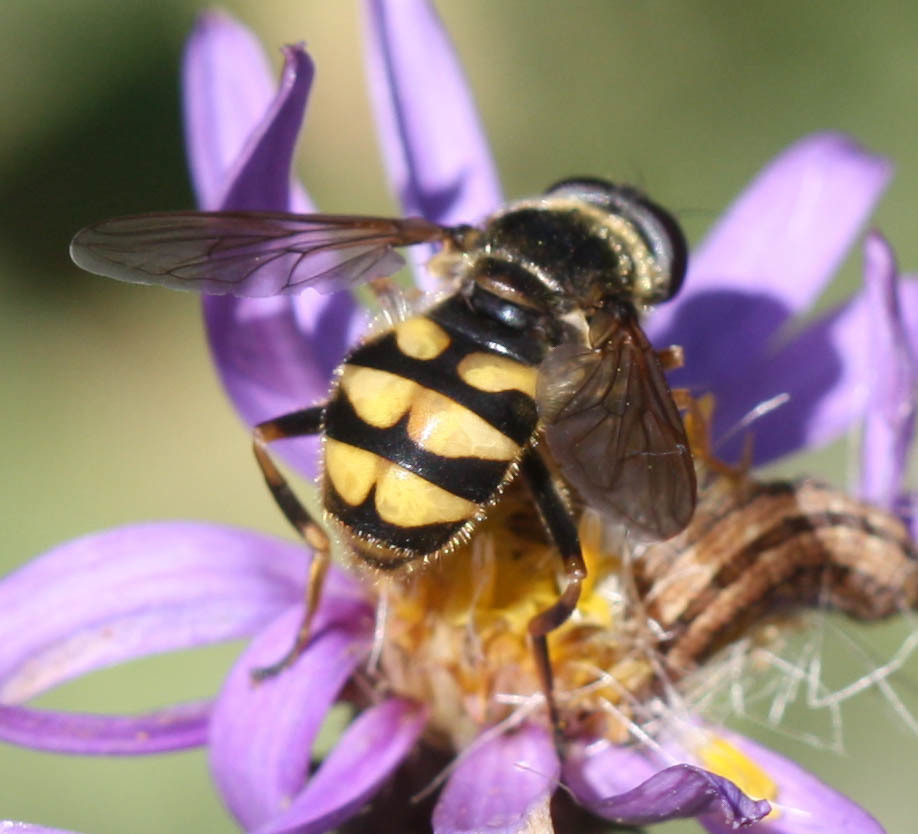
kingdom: Animalia
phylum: Arthropoda
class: Insecta
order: Diptera
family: Syrphidae
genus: Blera
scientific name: Blera scitula
